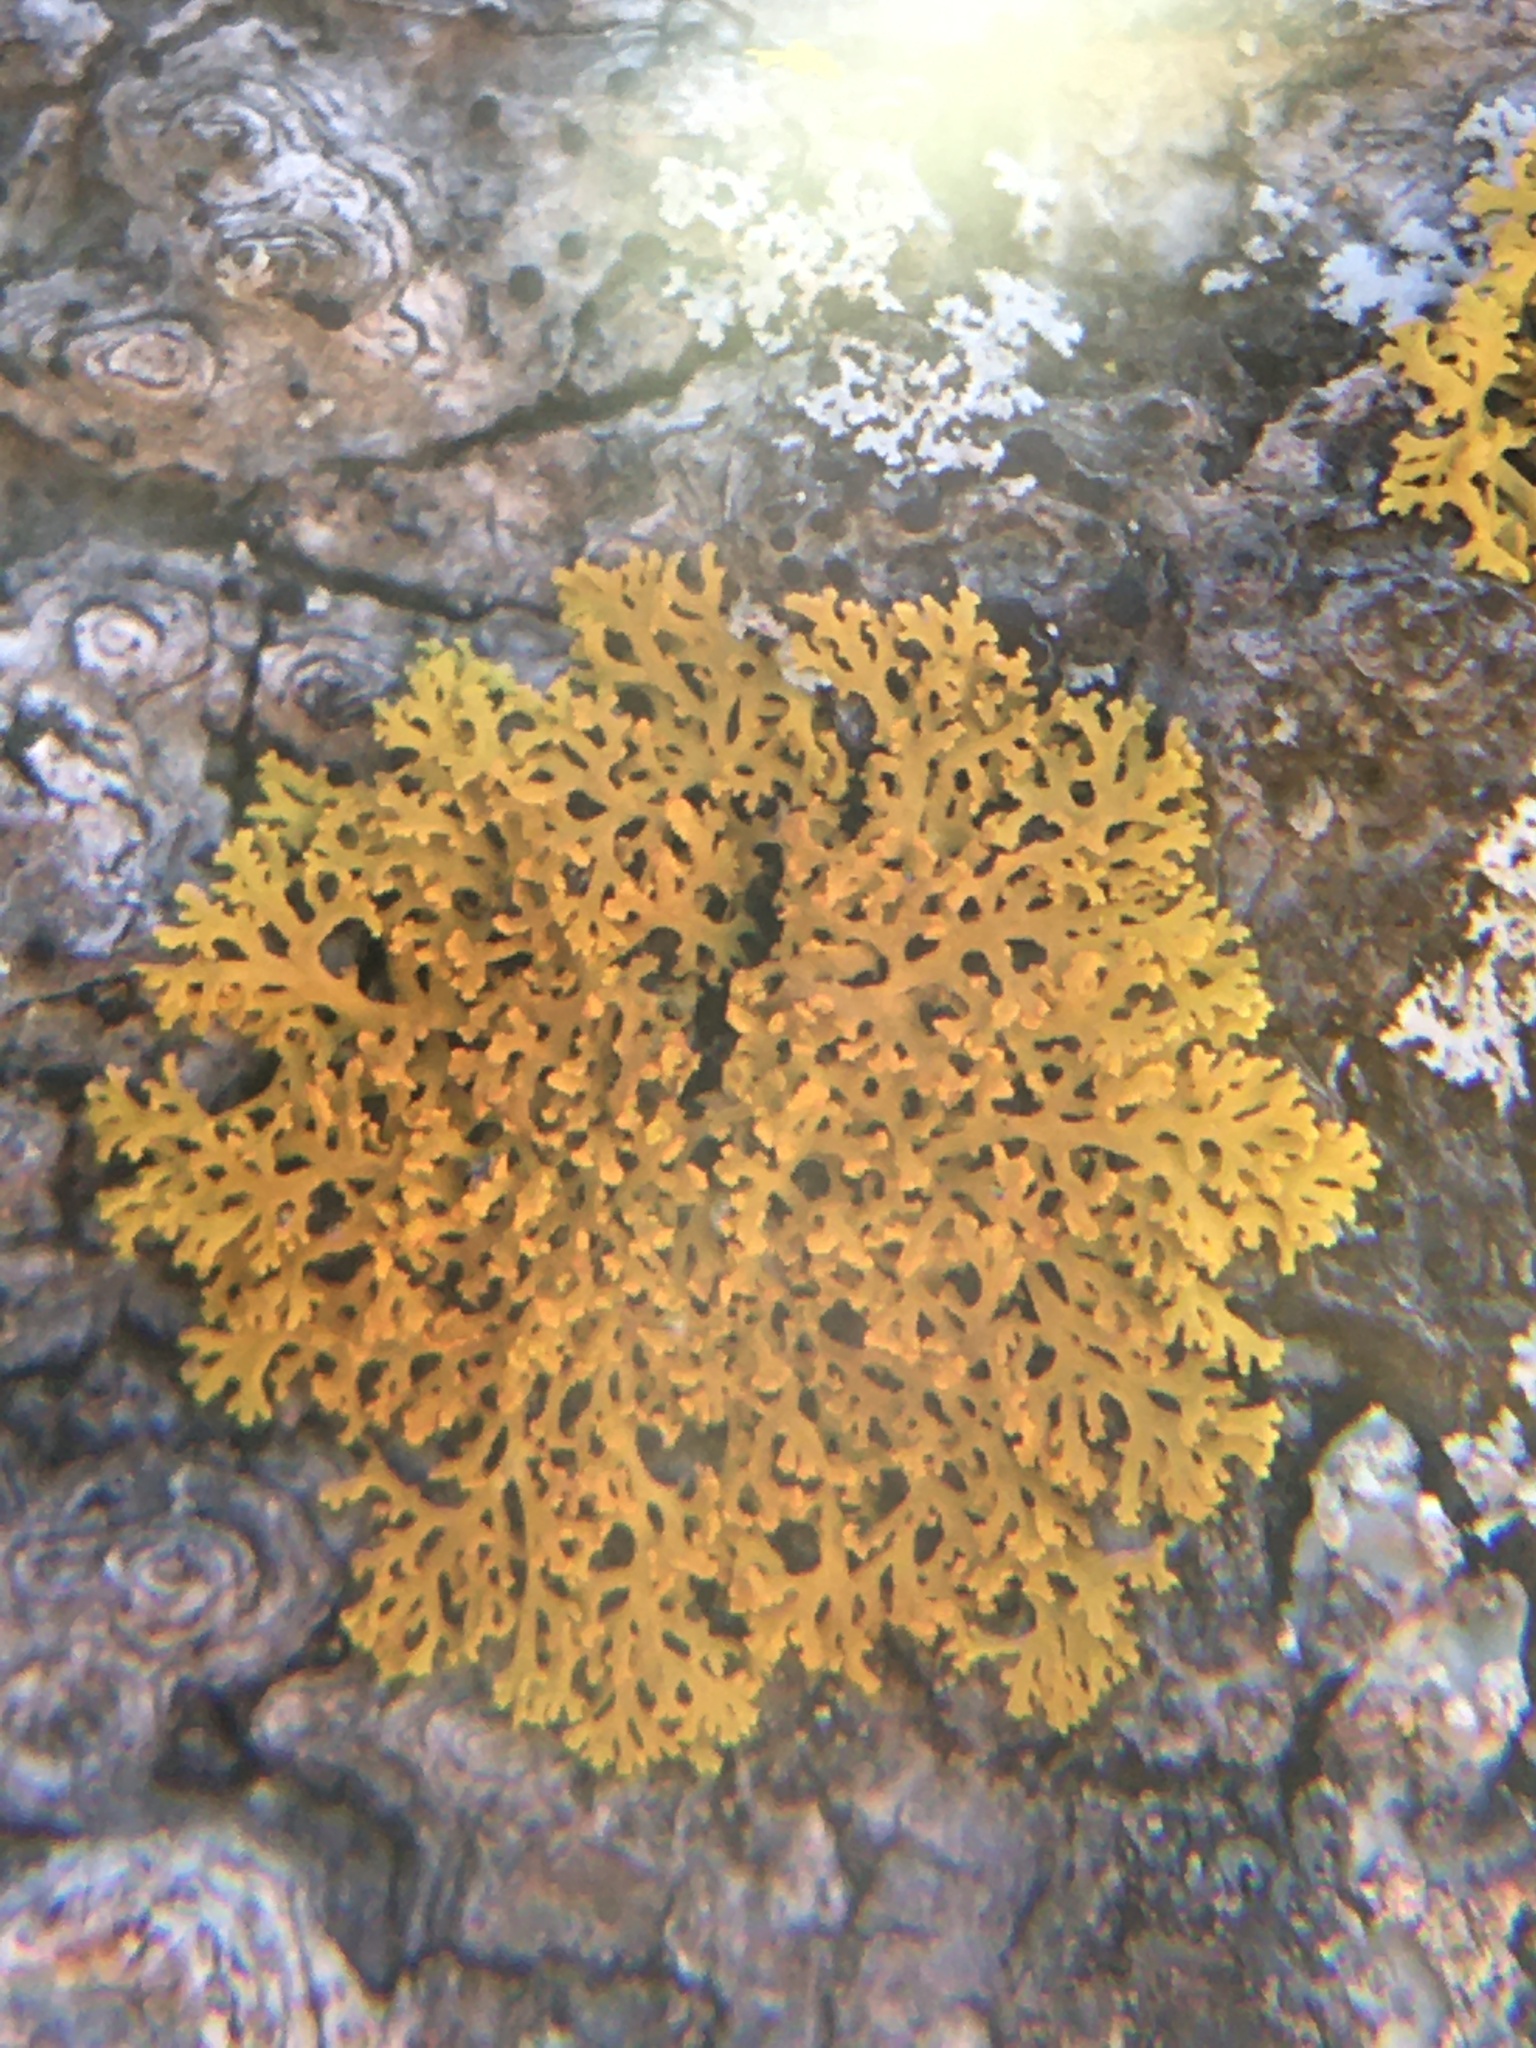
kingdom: Fungi
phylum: Ascomycota
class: Lecanoromycetes
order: Teloschistales
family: Teloschistaceae
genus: Gallowayella
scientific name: Gallowayella weberi
